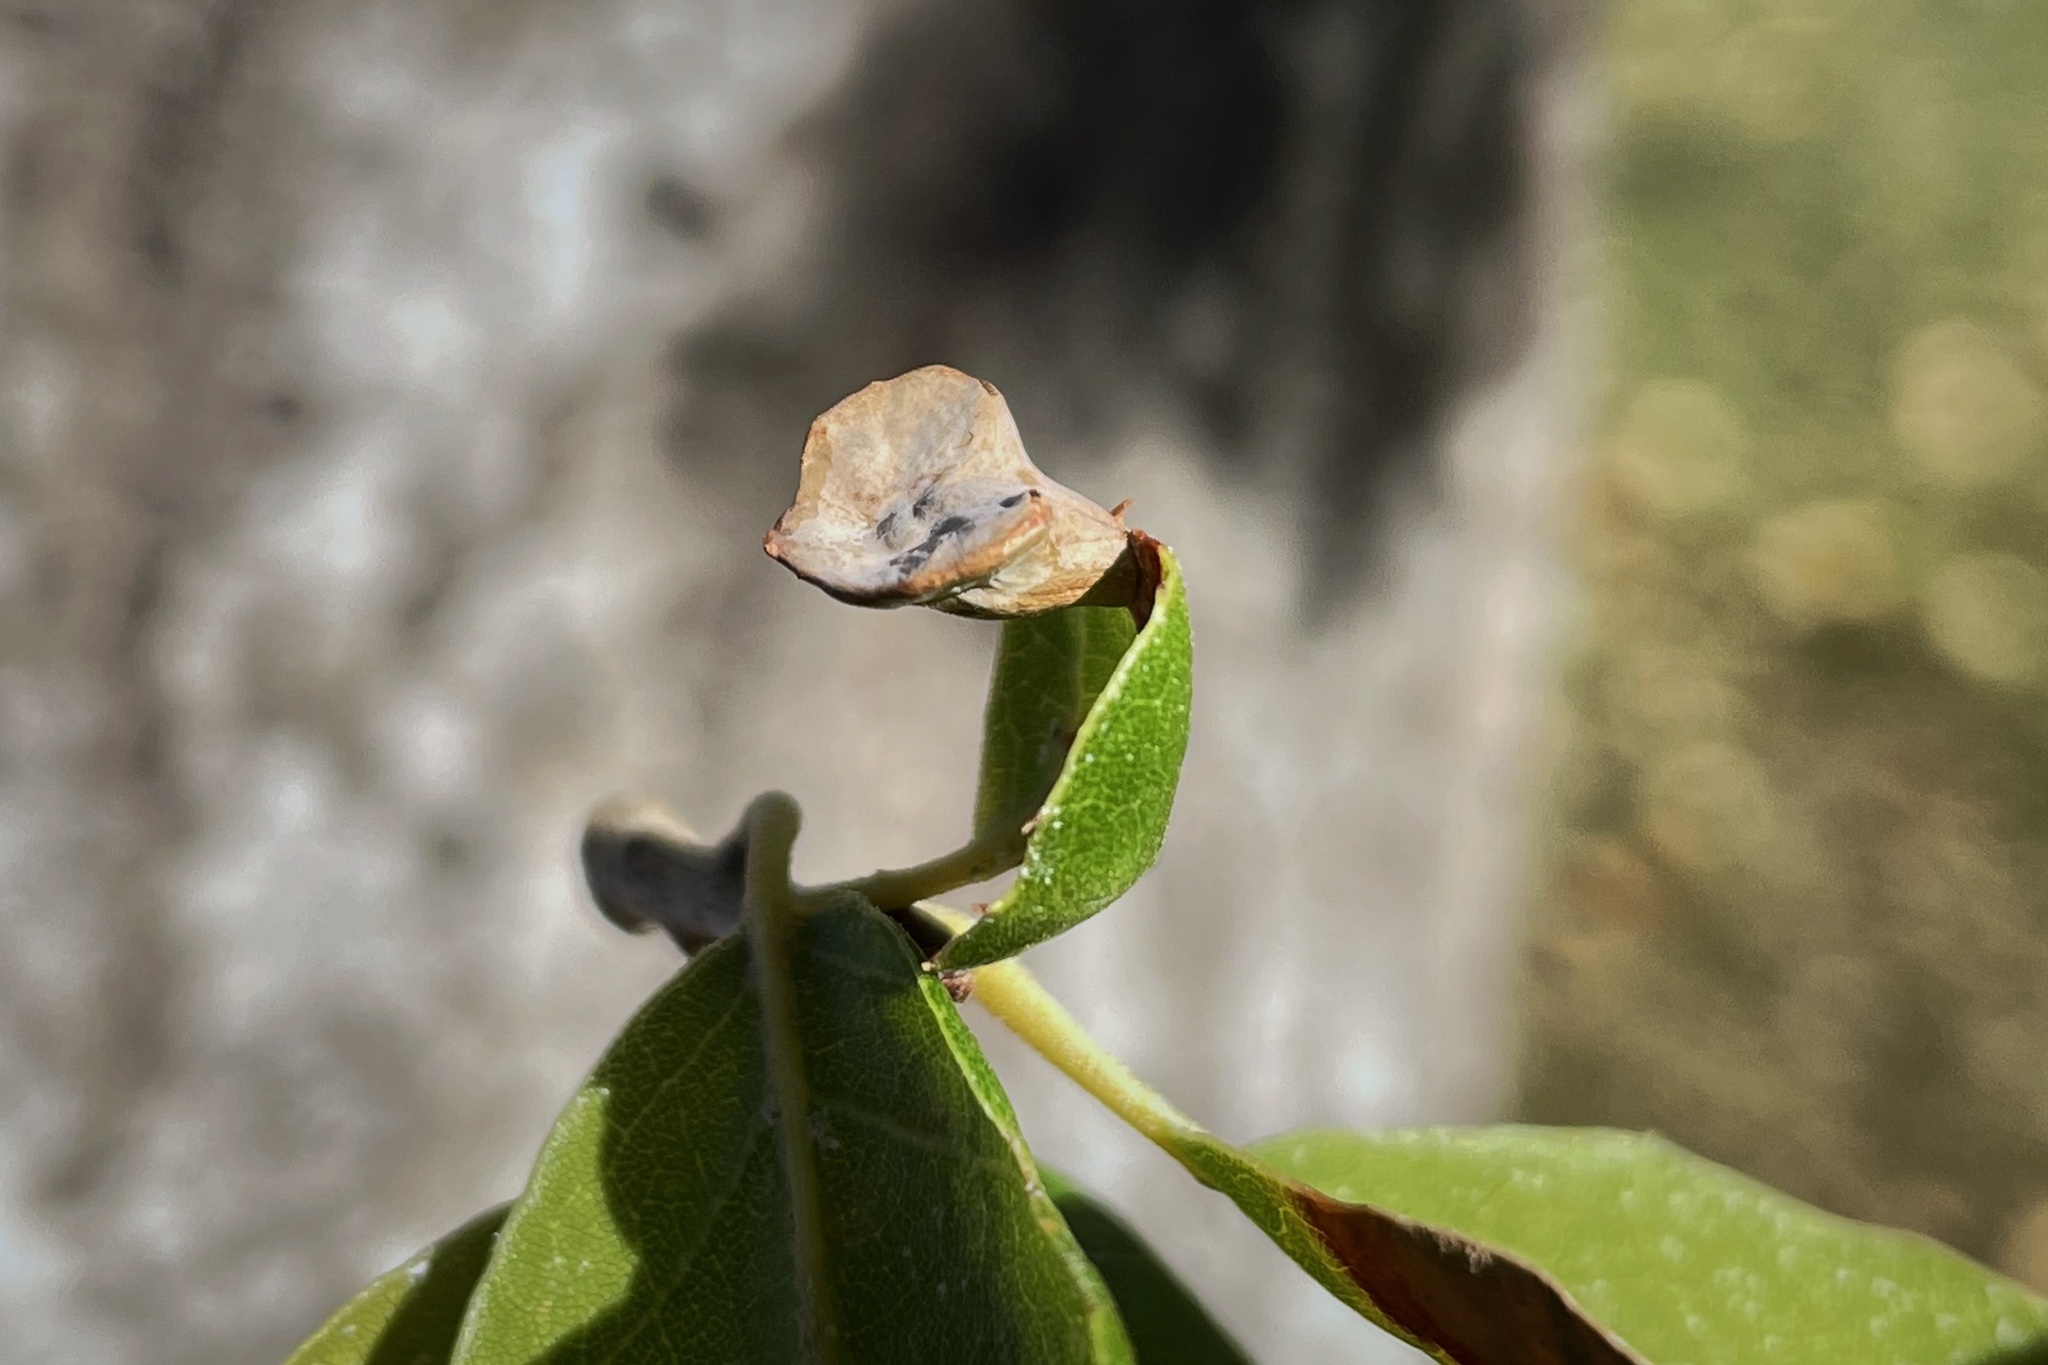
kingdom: Animalia
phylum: Arthropoda
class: Insecta
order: Hymenoptera
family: Cynipidae
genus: Amphibolips
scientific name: Amphibolips quercuspomiformis
